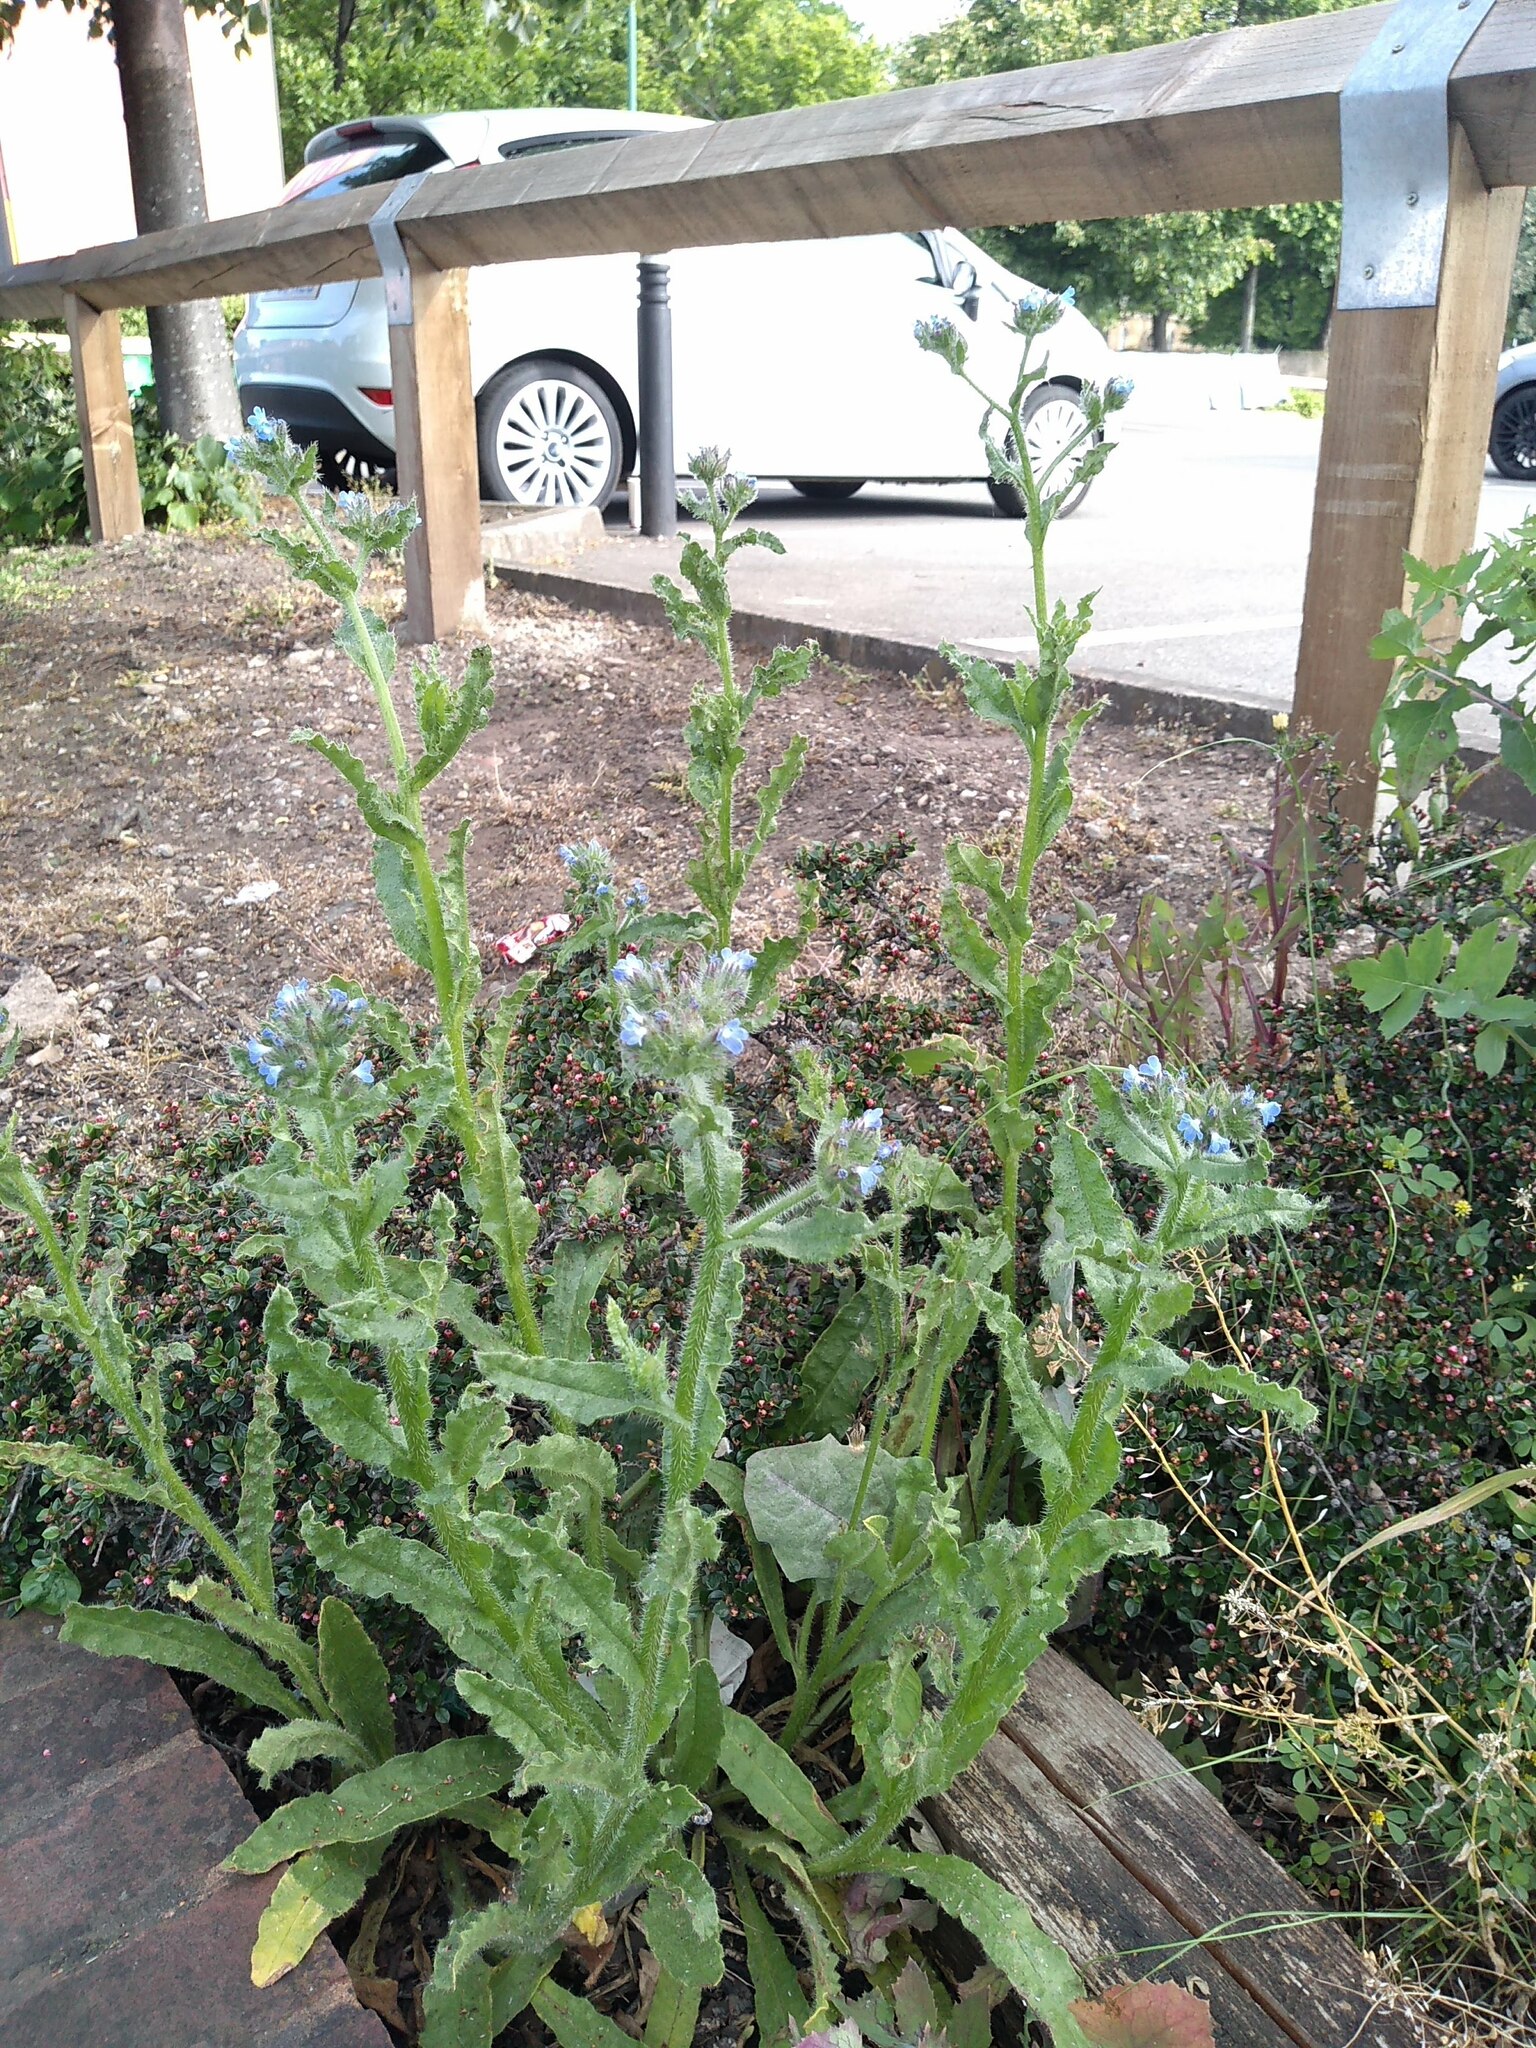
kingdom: Plantae
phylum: Tracheophyta
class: Magnoliopsida
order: Boraginales
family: Boraginaceae
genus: Lycopsis
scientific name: Lycopsis arvensis
